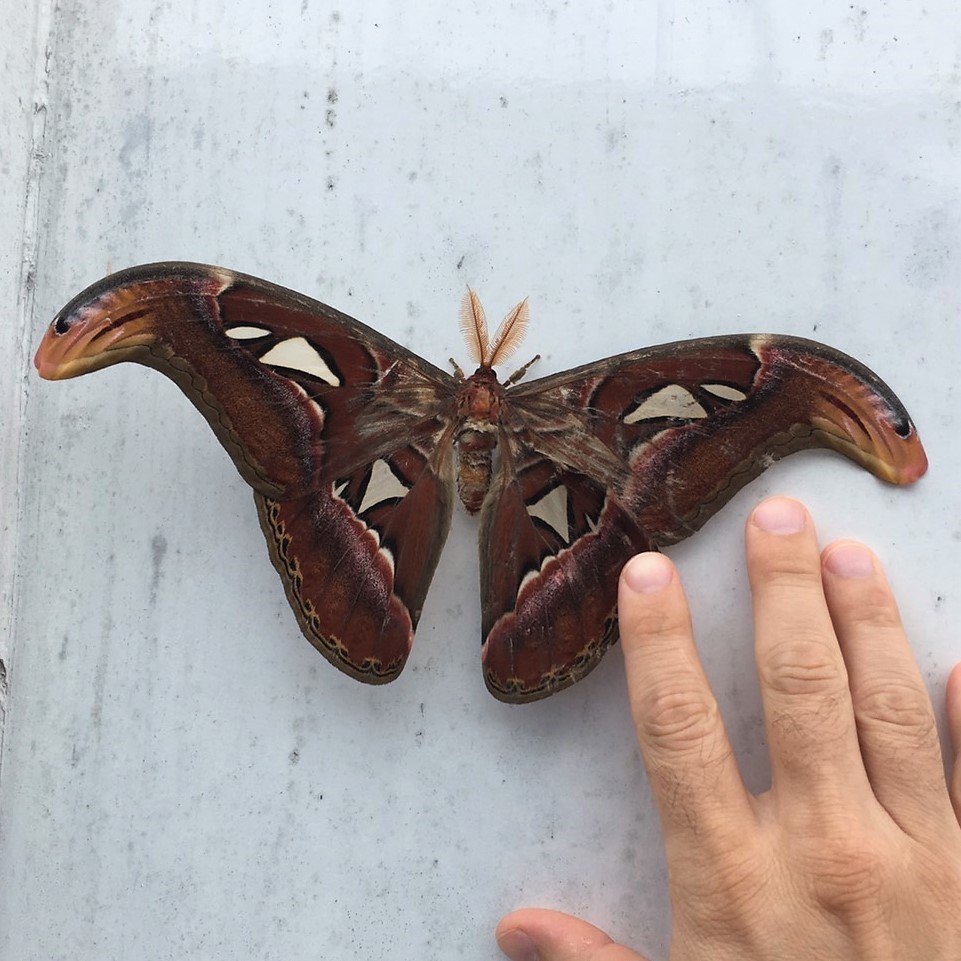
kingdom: Animalia
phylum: Arthropoda
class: Insecta
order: Lepidoptera
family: Saturniidae
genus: Attacus
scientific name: Attacus atlas
